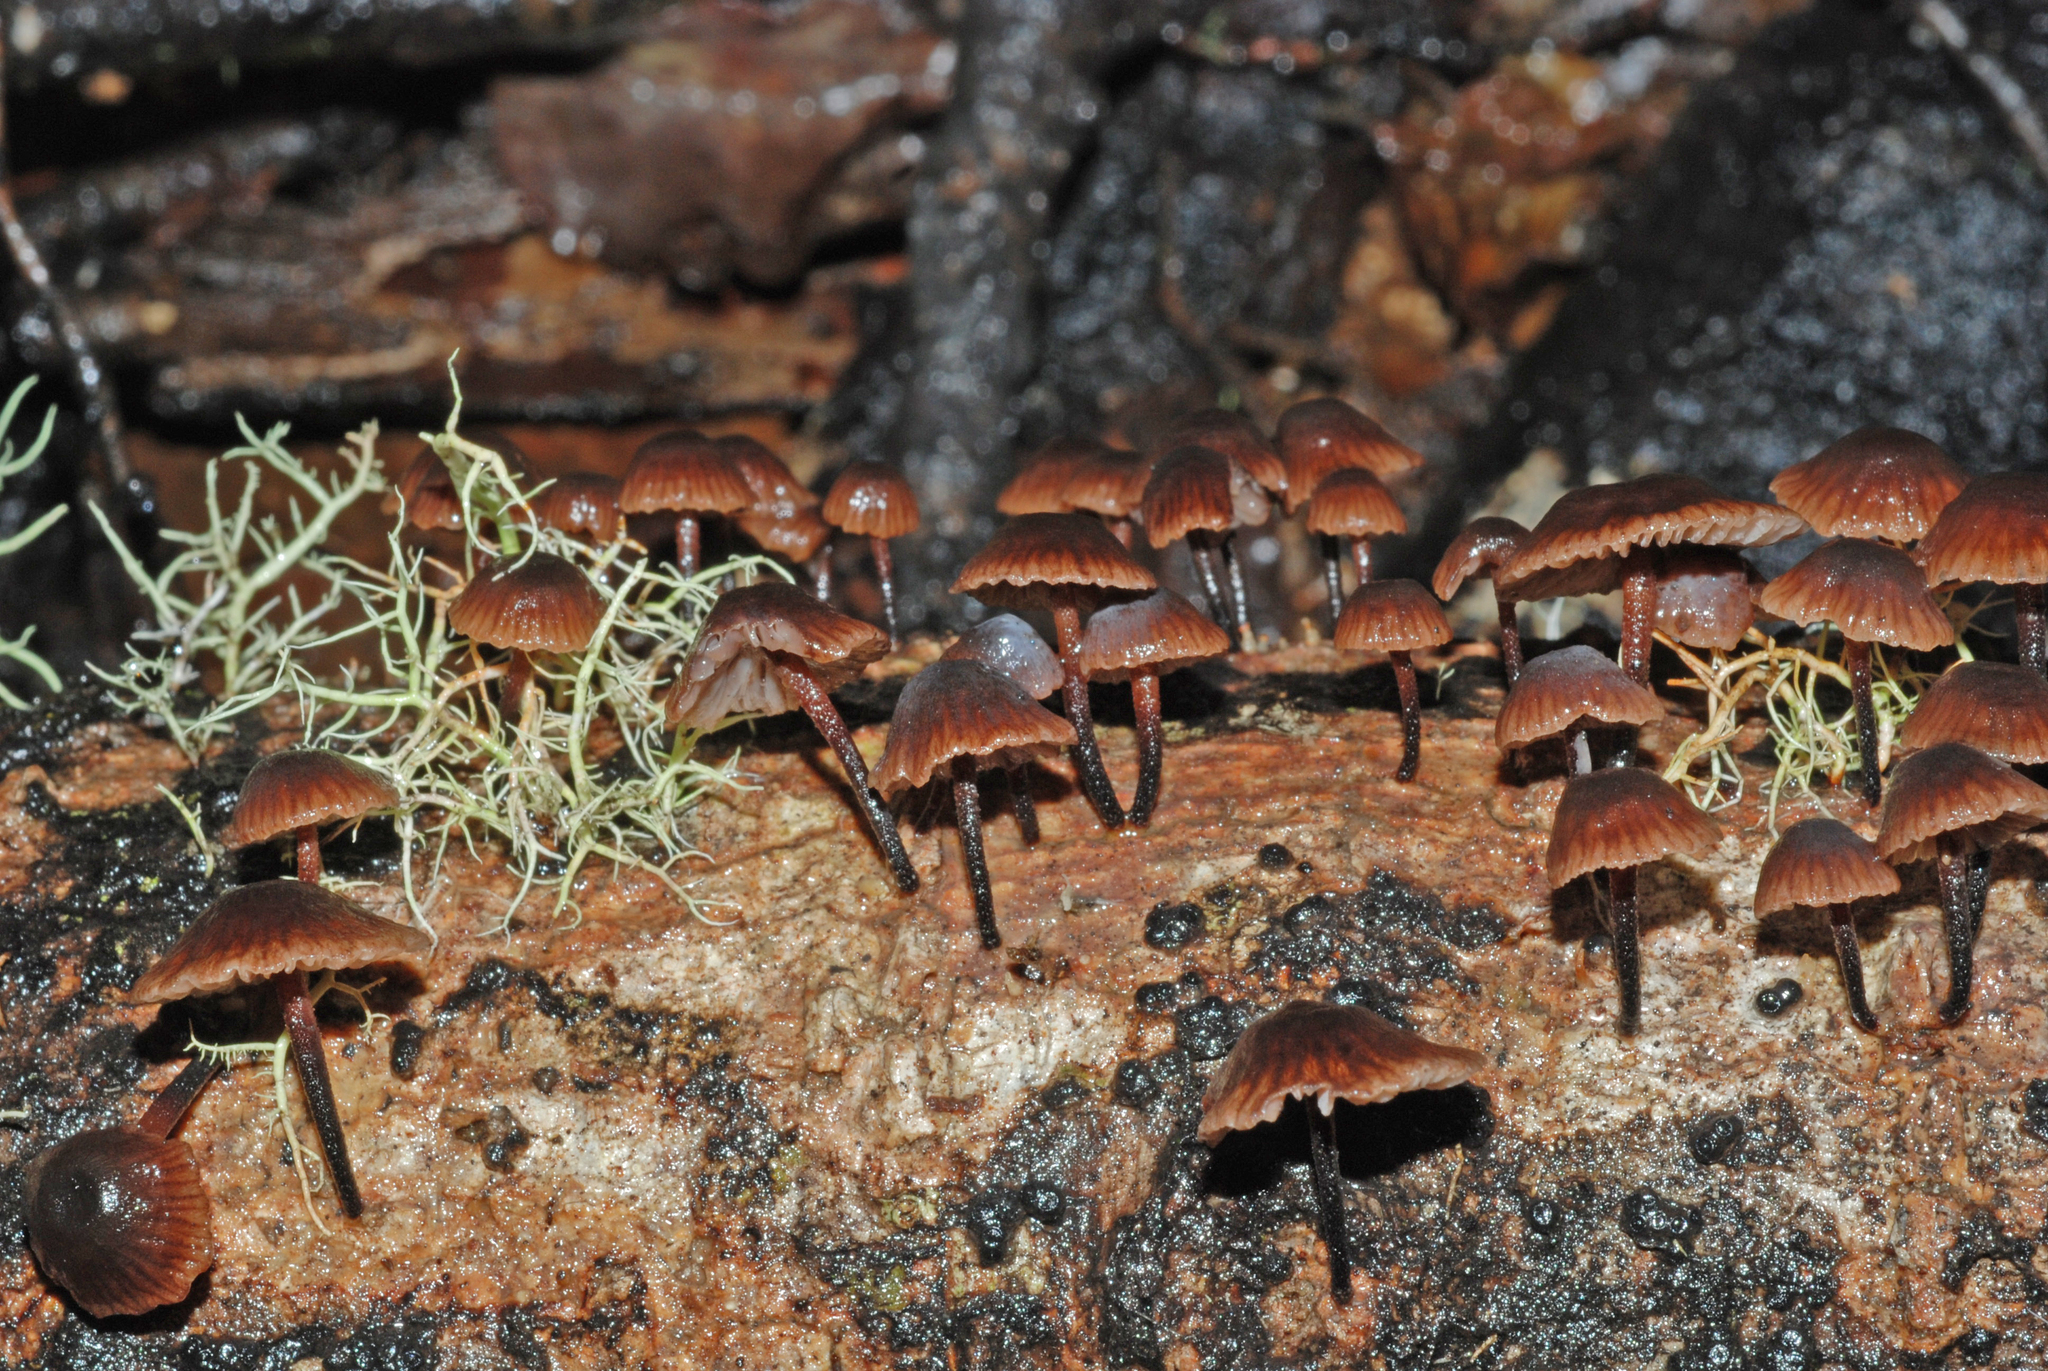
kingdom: Fungi
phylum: Basidiomycota
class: Agaricomycetes
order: Agaricales
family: Omphalotaceae
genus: Gymnopus
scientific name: Gymnopus ceraceicola
